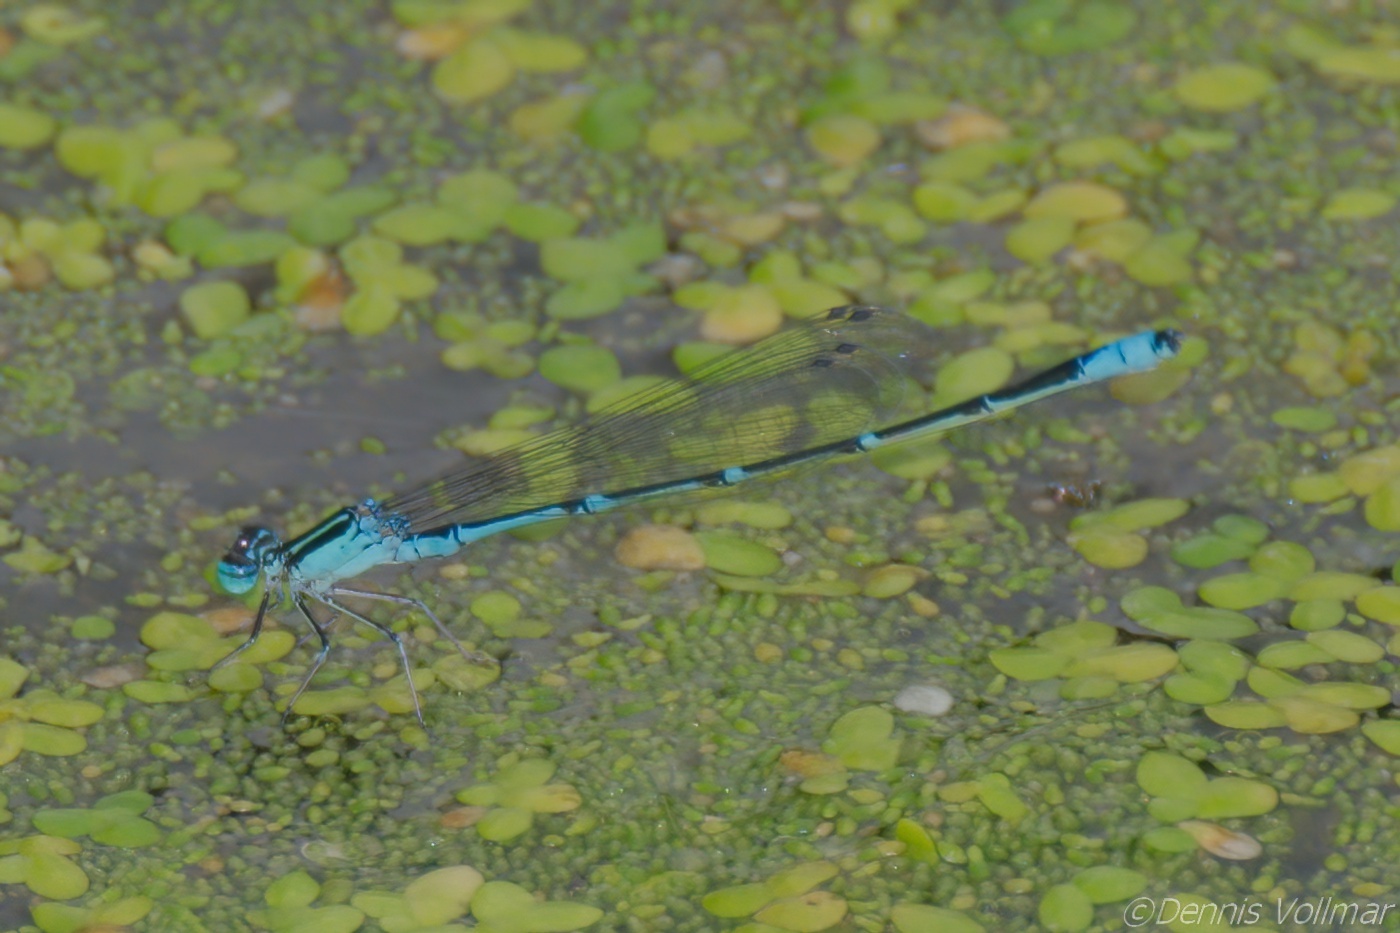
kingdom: Animalia
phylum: Arthropoda
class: Insecta
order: Odonata
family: Coenagrionidae
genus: Enallagma
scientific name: Enallagma exsulans
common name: Stream bluet
